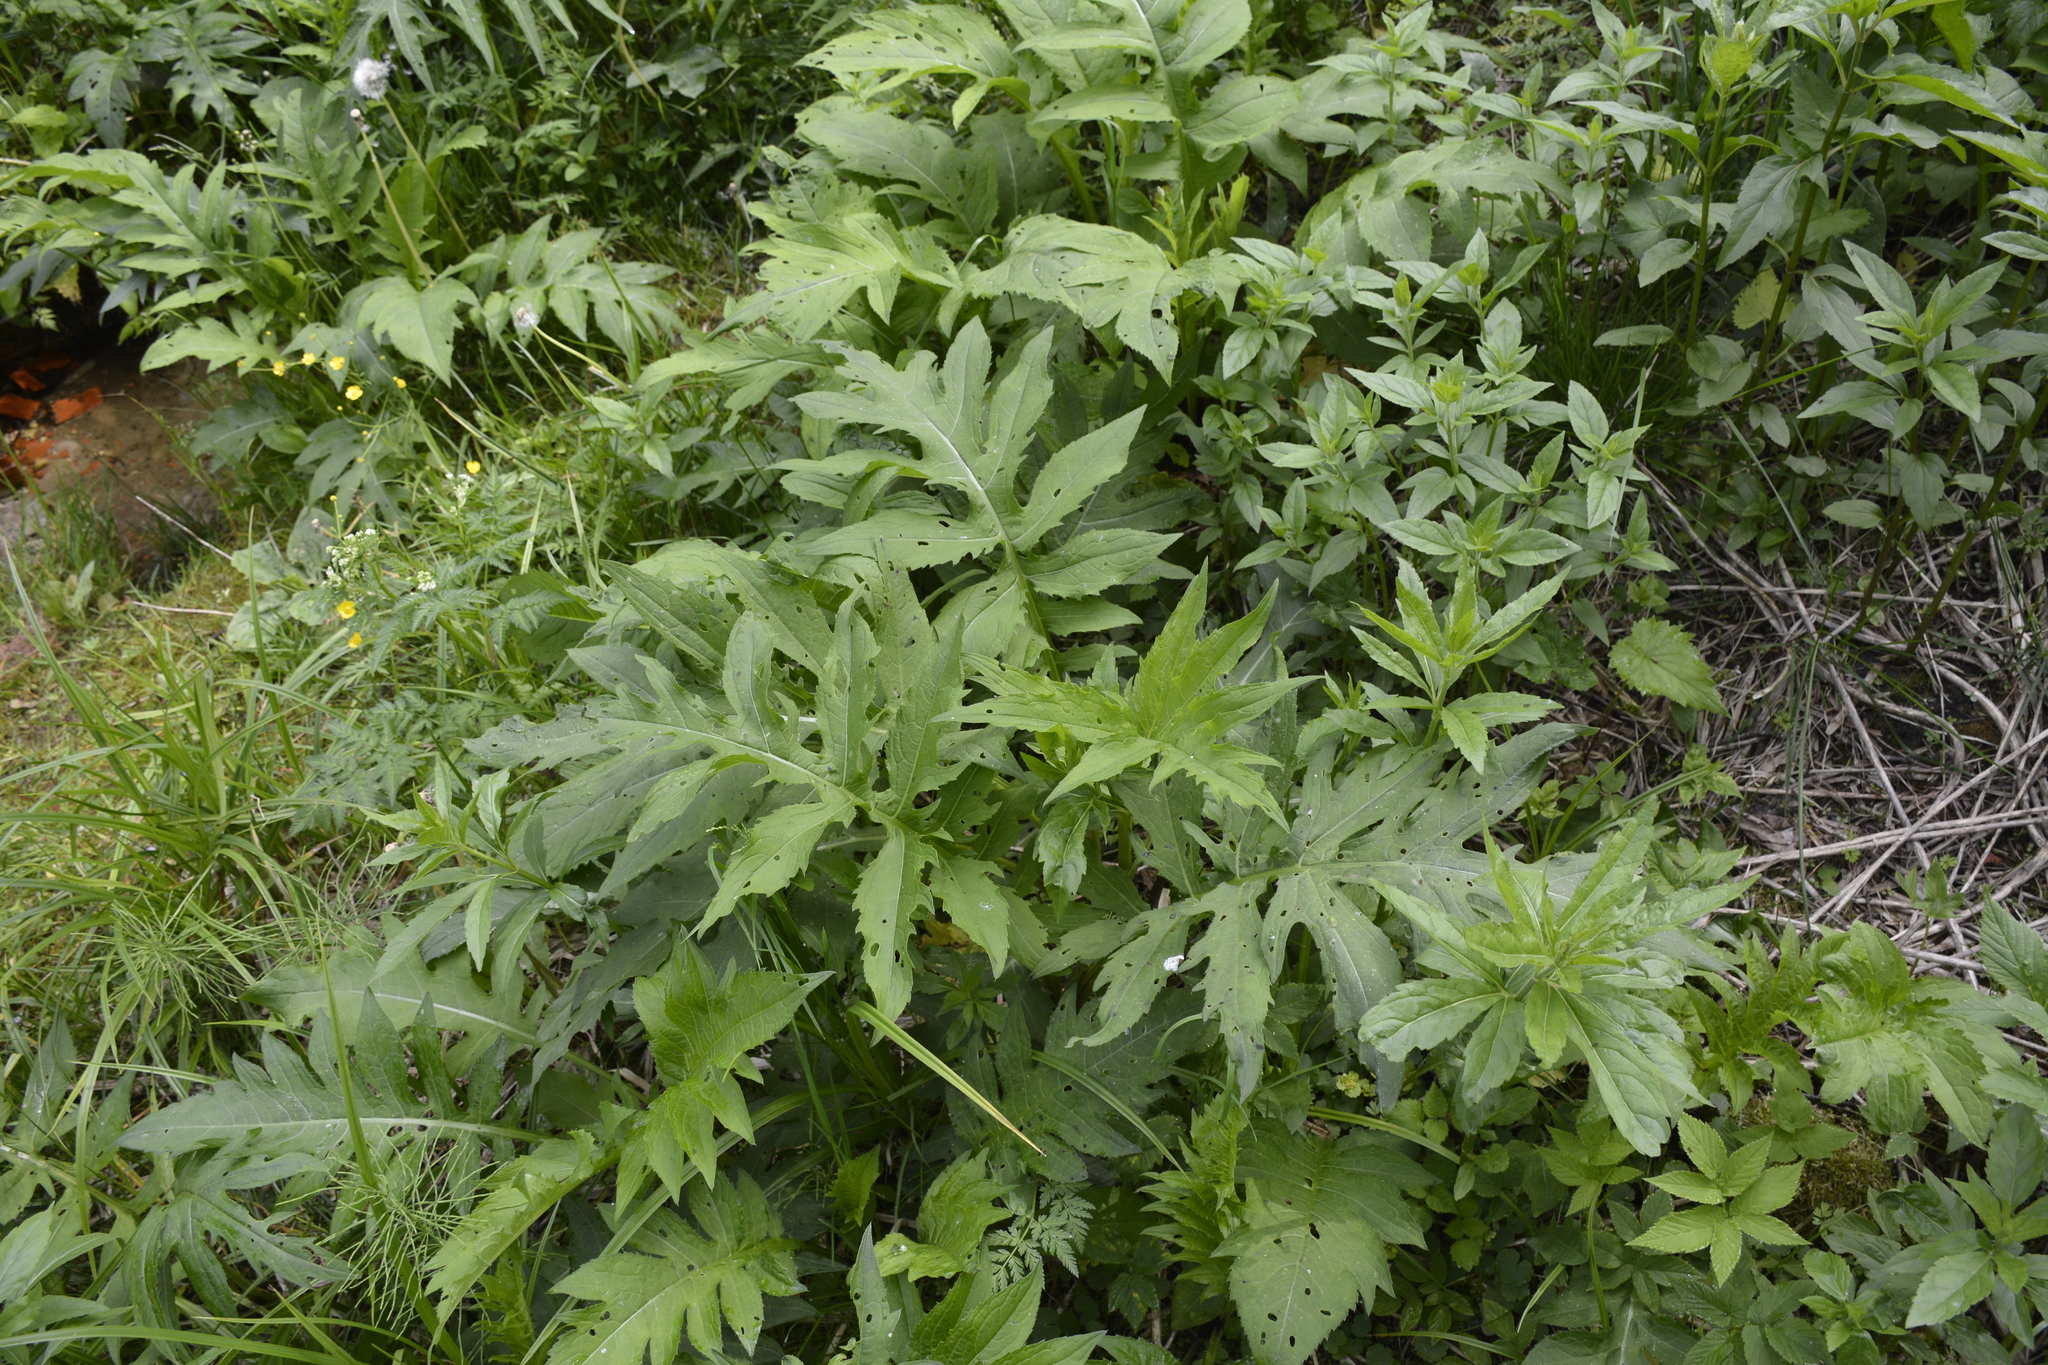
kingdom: Plantae
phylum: Tracheophyta
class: Magnoliopsida
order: Asterales
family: Asteraceae
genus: Cirsium
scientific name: Cirsium oleraceum
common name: Cabbage thistle
